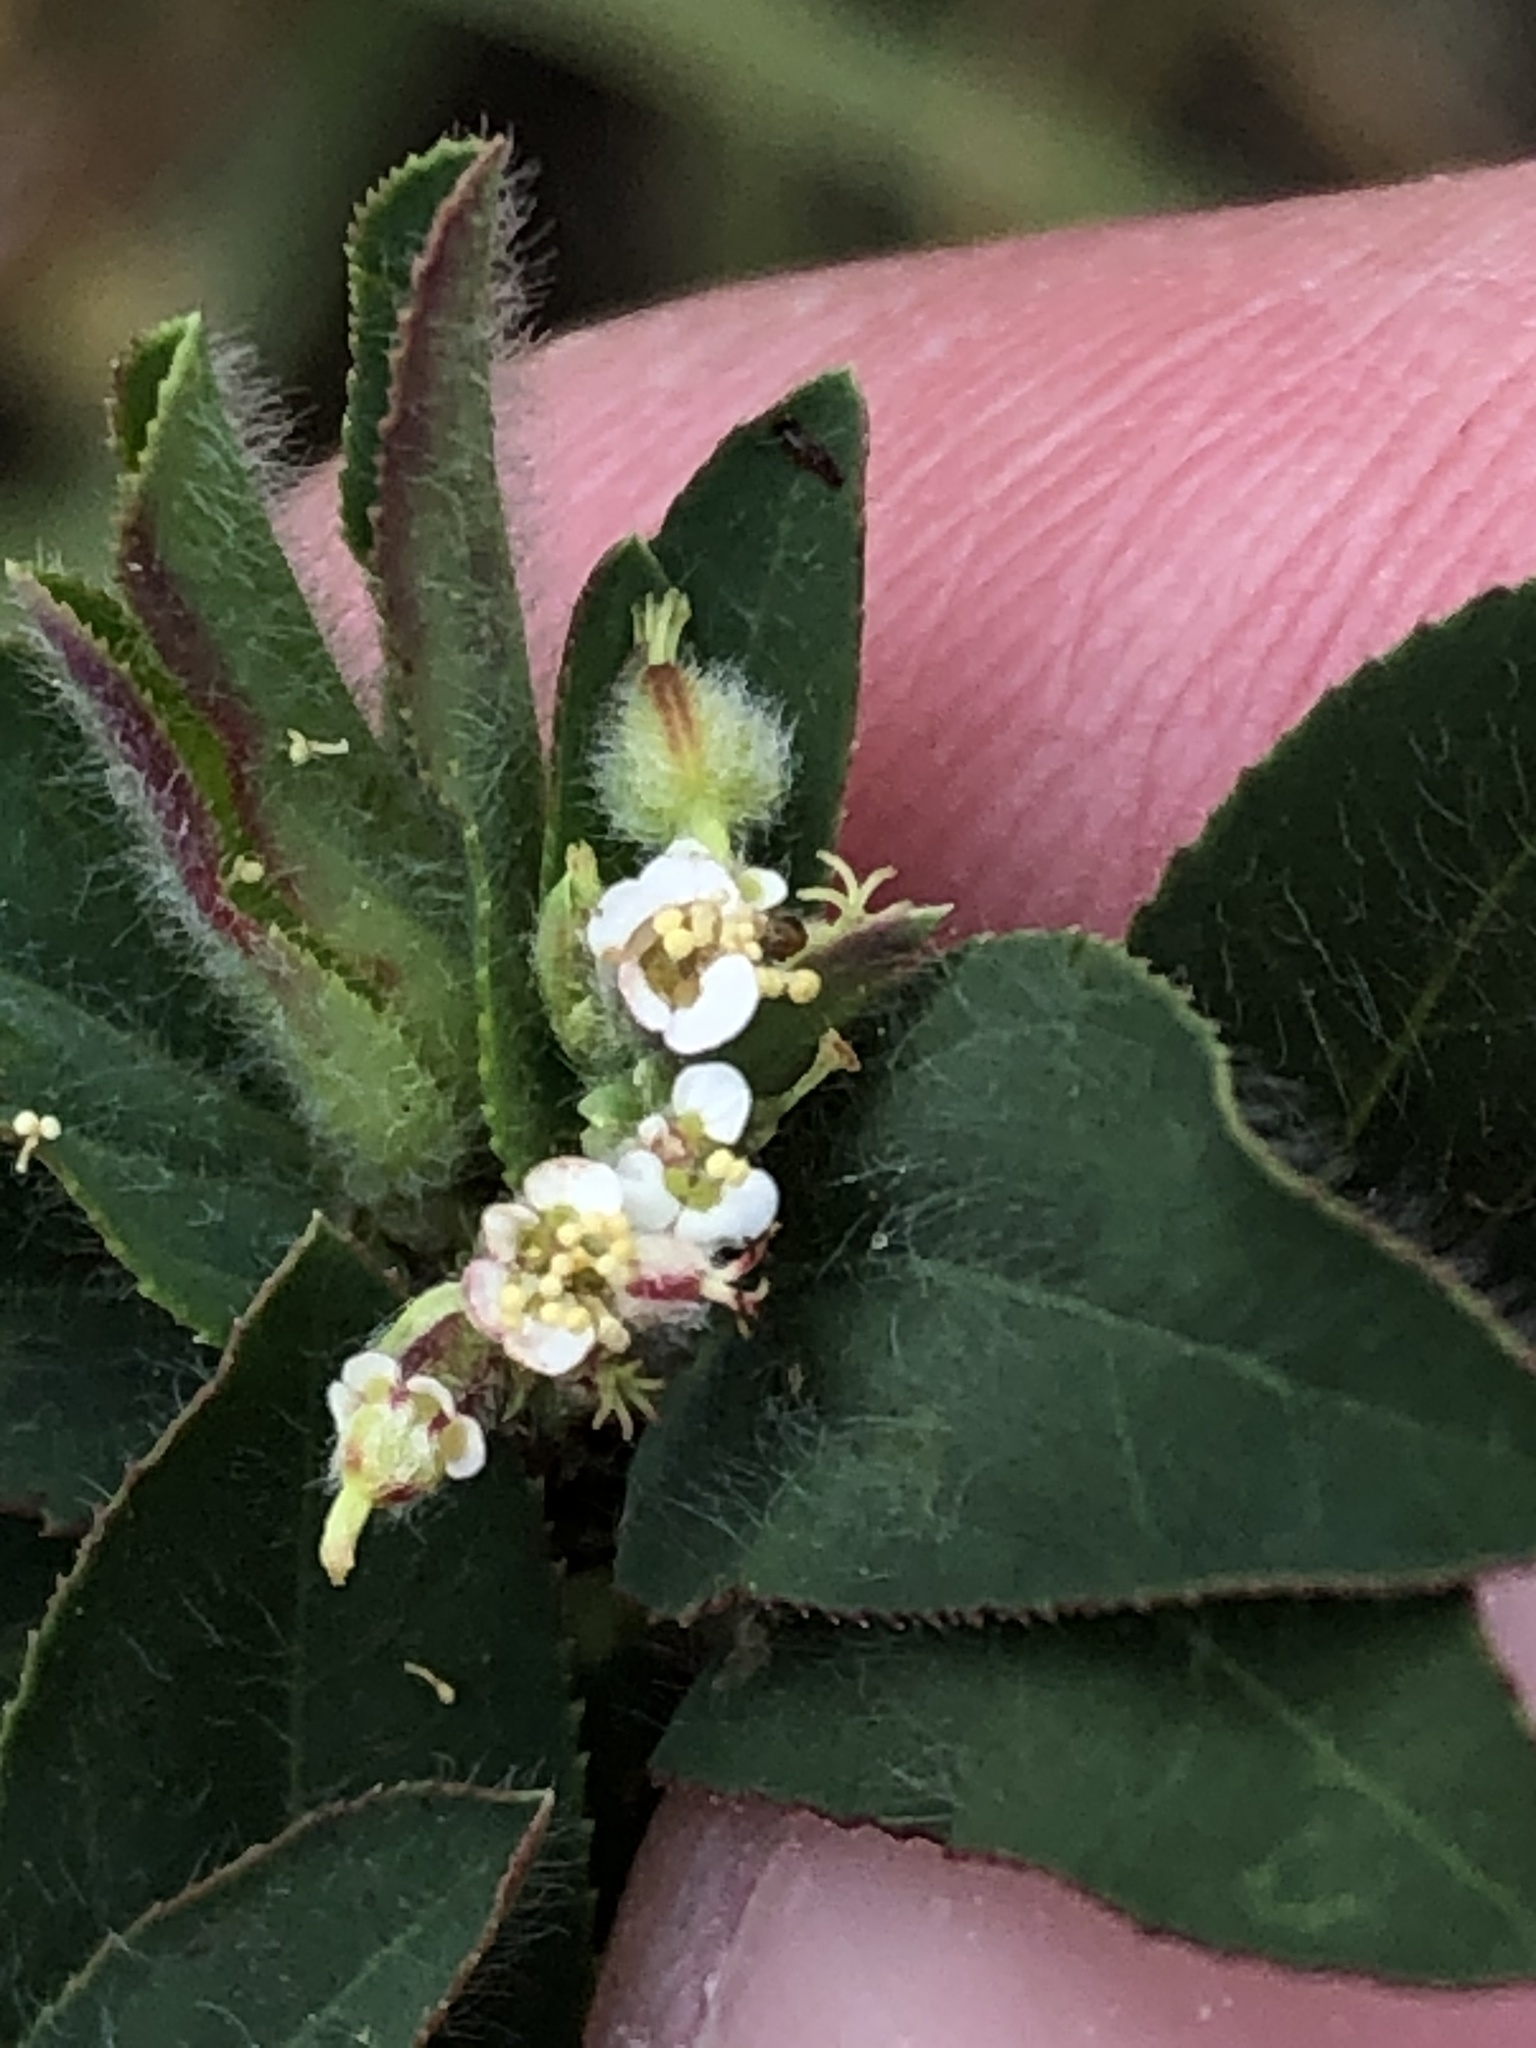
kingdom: Plantae
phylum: Tracheophyta
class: Magnoliopsida
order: Malpighiales
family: Euphorbiaceae
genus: Euphorbia
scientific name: Euphorbia lasiocarpa
